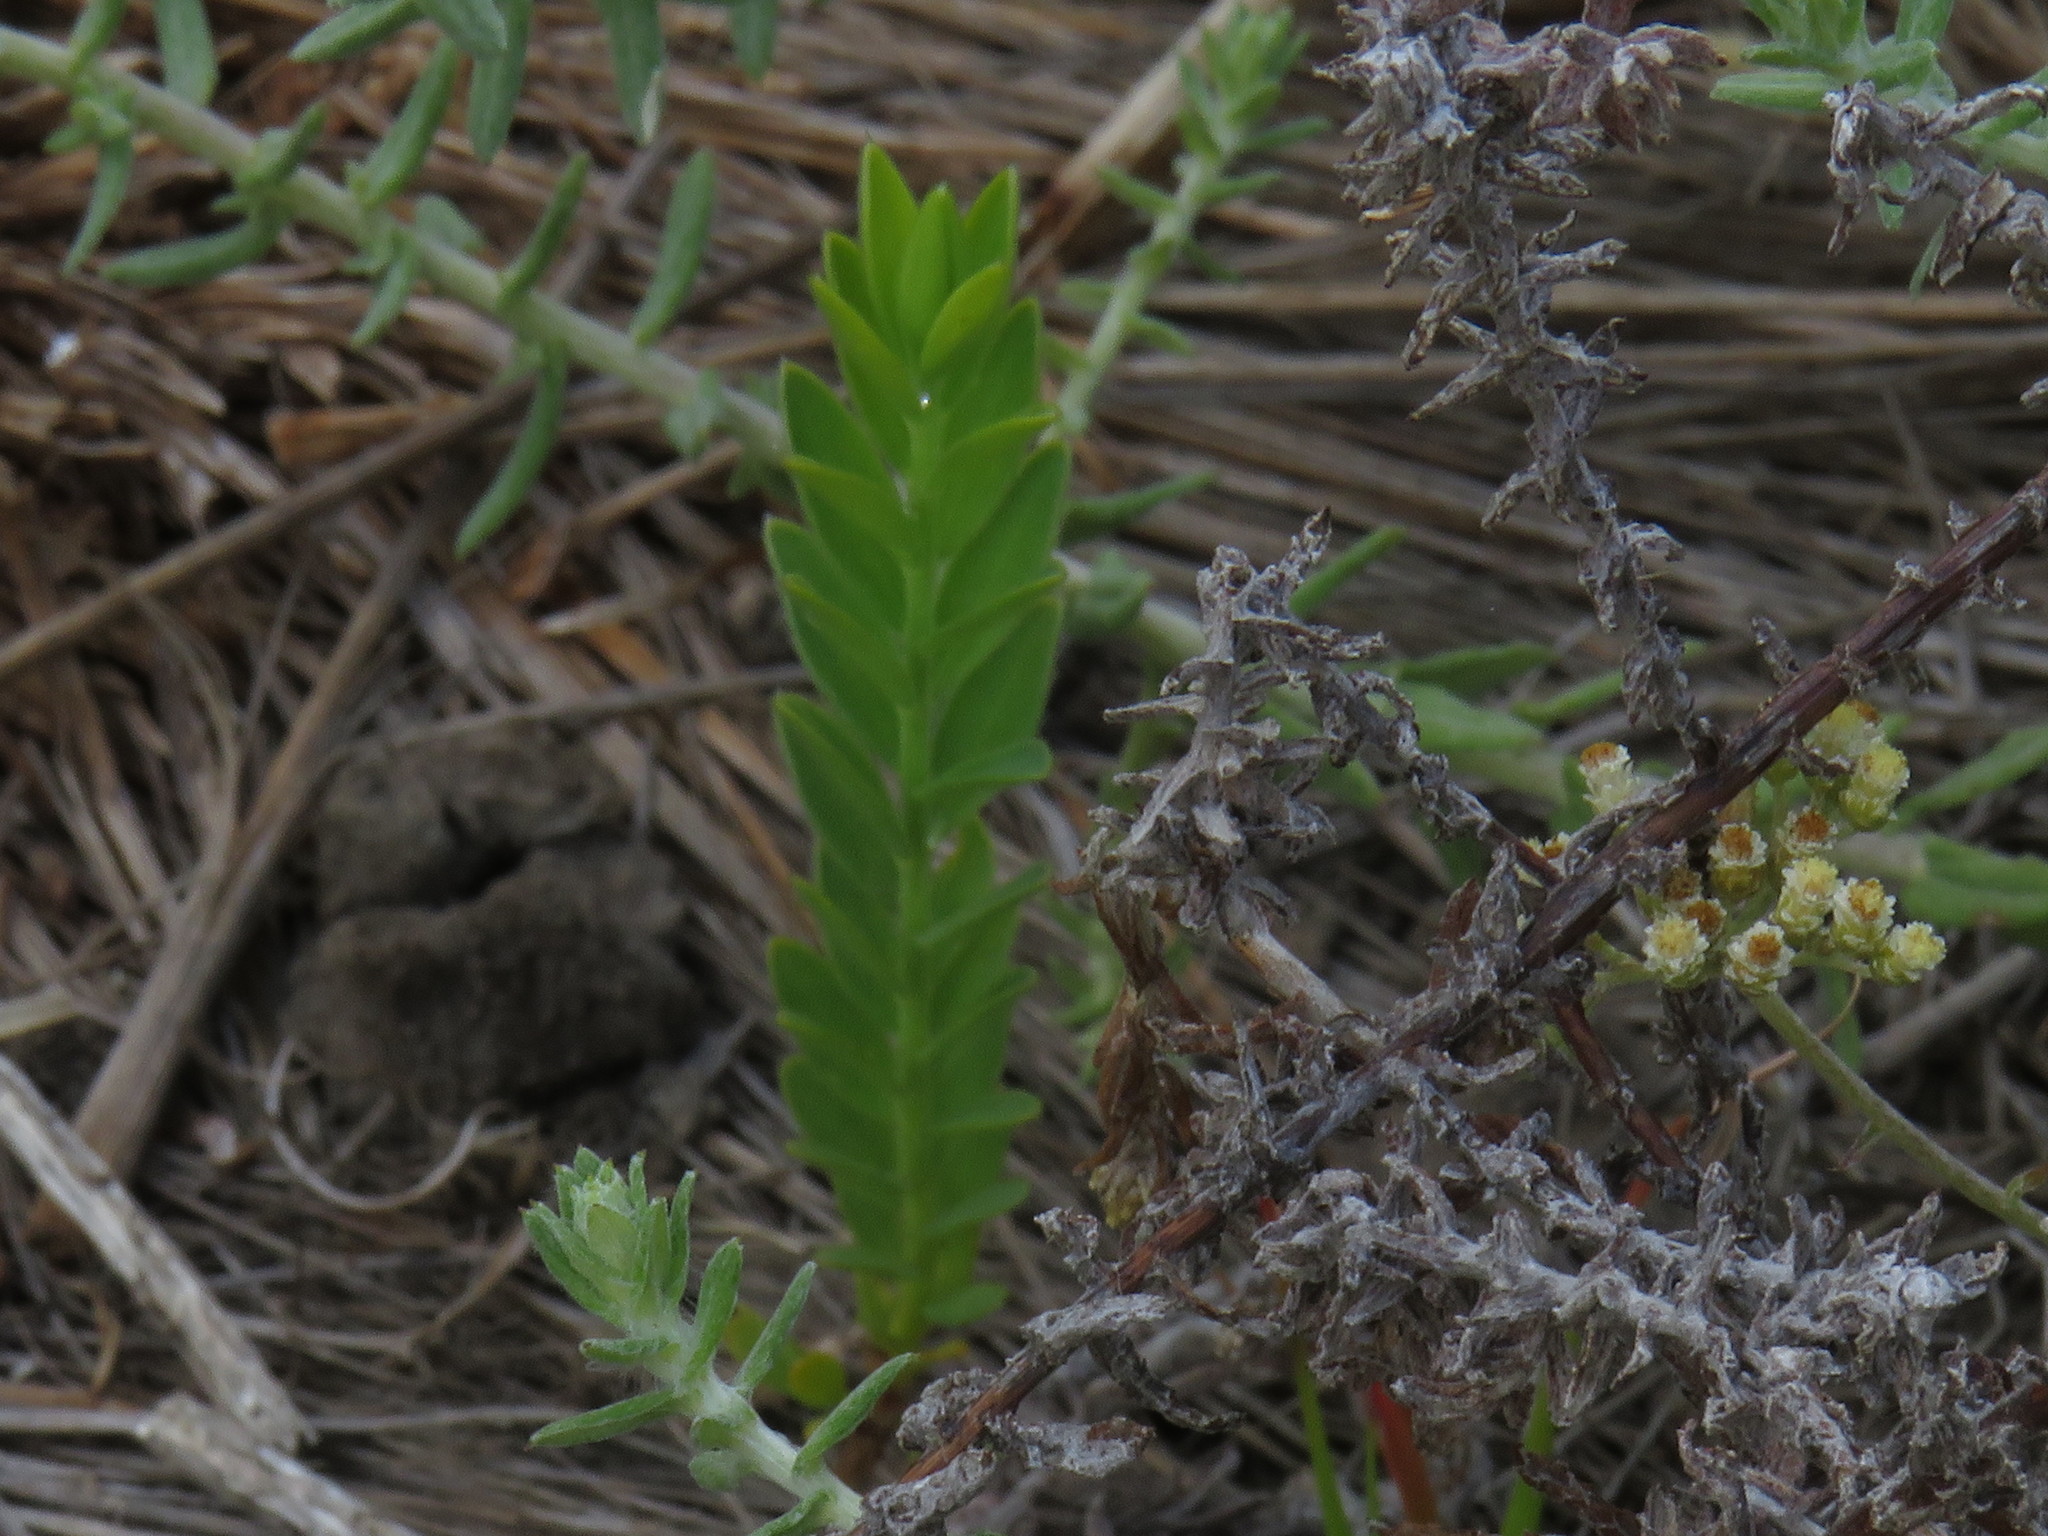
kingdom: Plantae
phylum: Tracheophyta
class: Magnoliopsida
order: Malvales
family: Thymelaeaceae
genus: Gnidia
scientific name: Gnidia sericea
